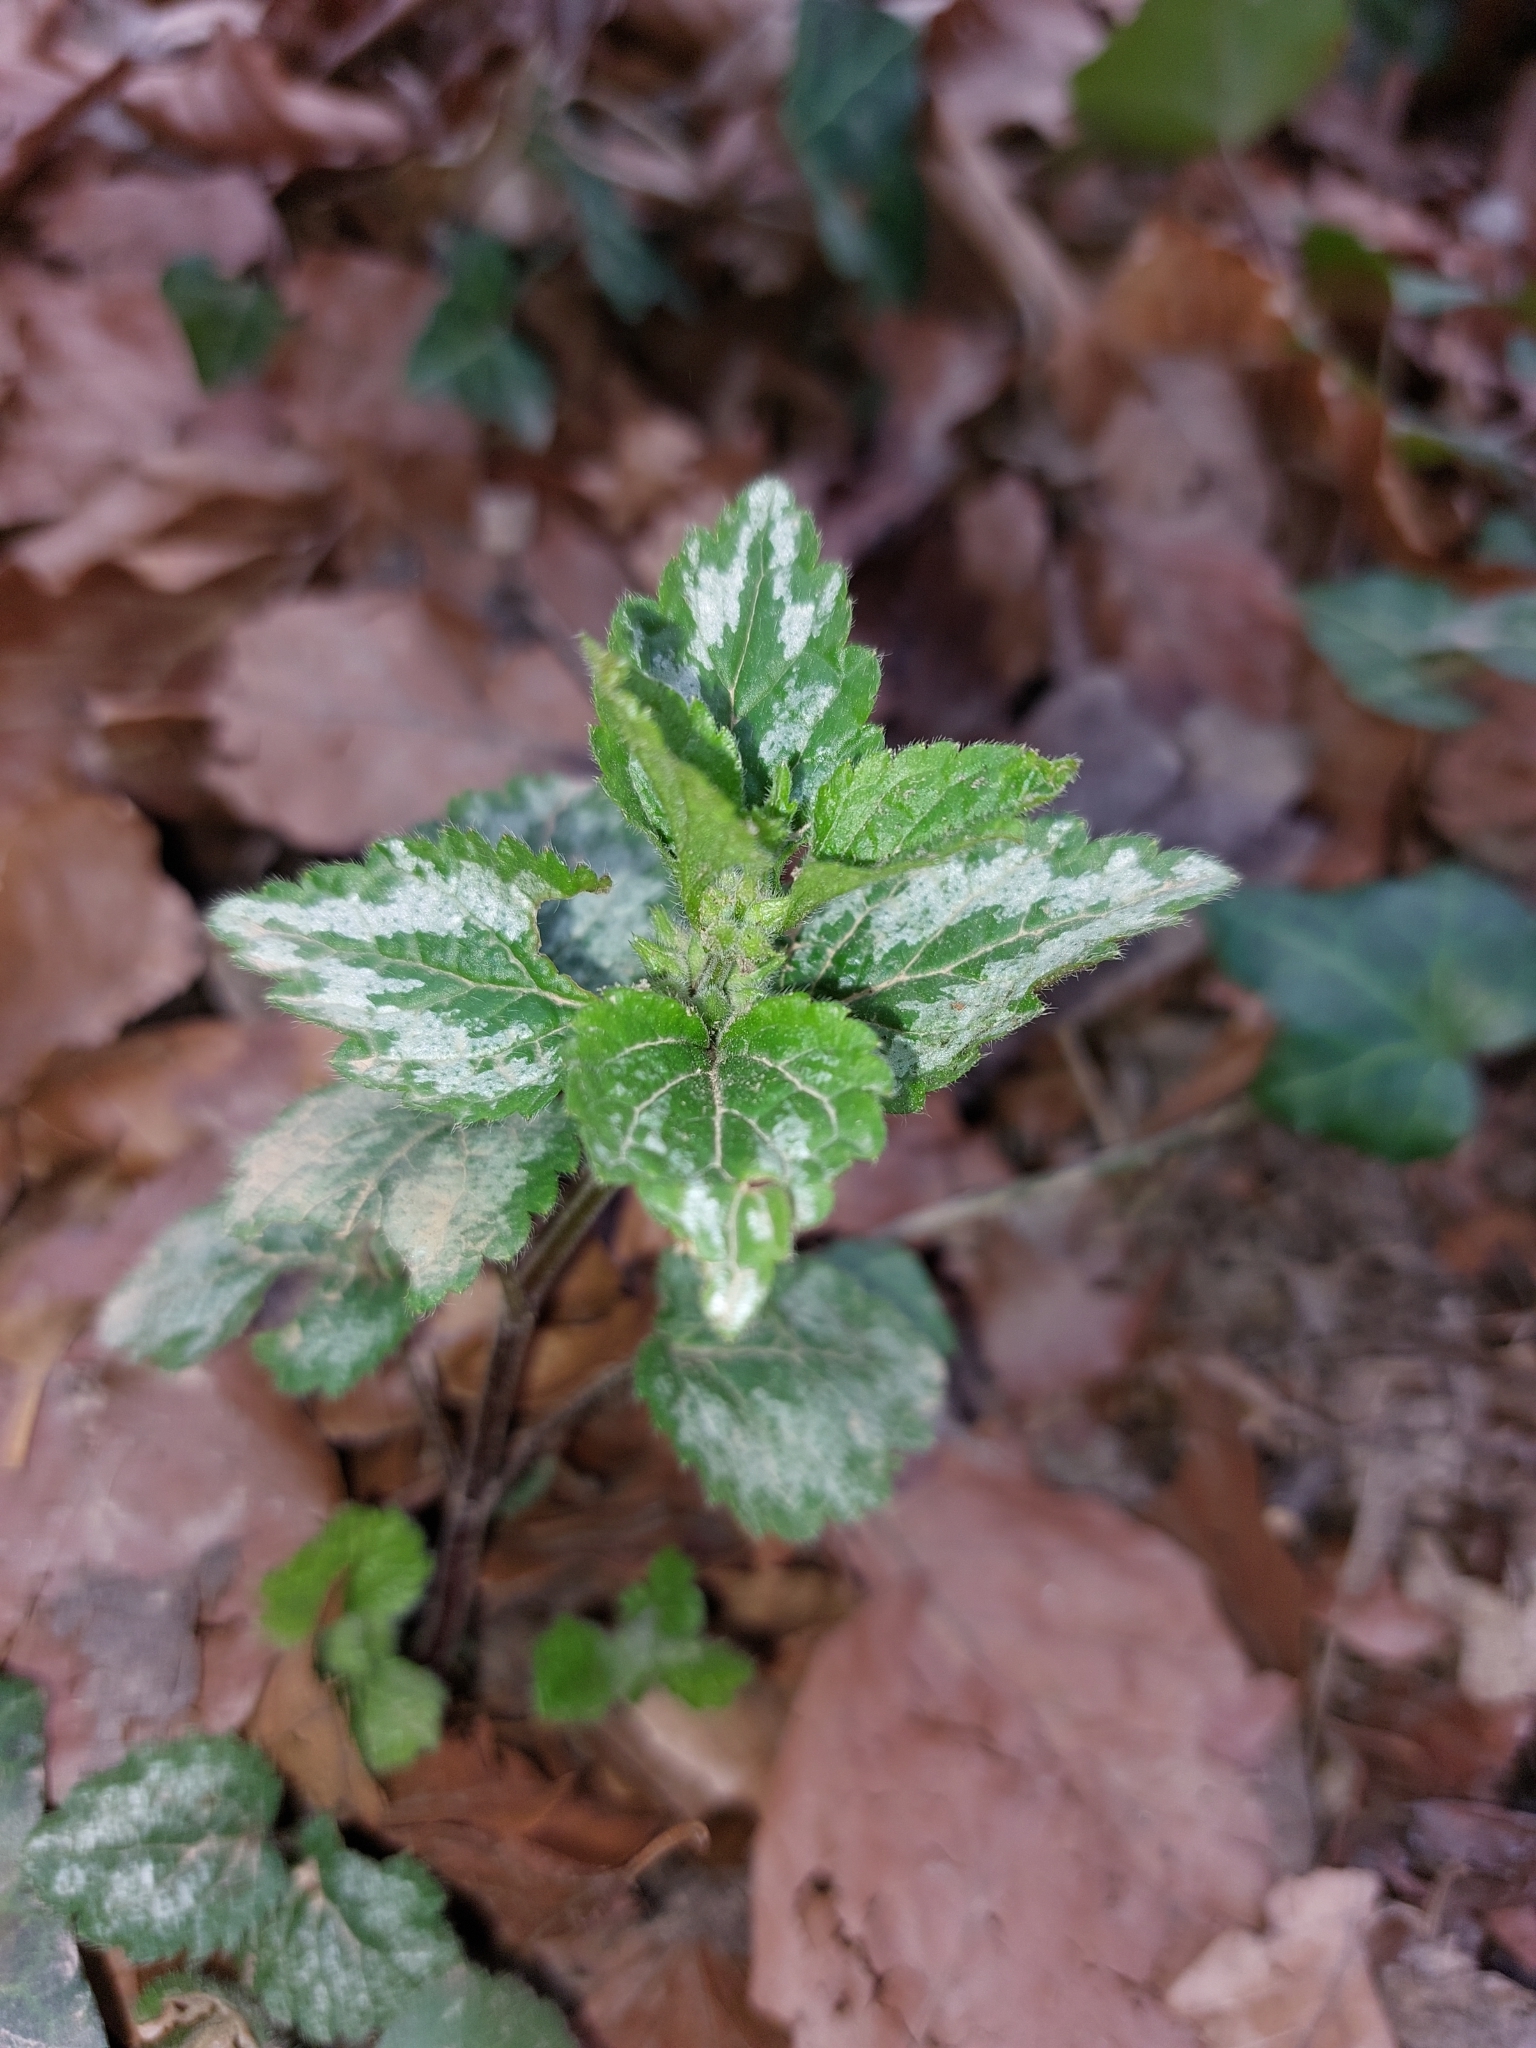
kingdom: Plantae
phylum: Tracheophyta
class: Magnoliopsida
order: Lamiales
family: Lamiaceae
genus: Lamium
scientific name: Lamium galeobdolon
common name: Yellow archangel
